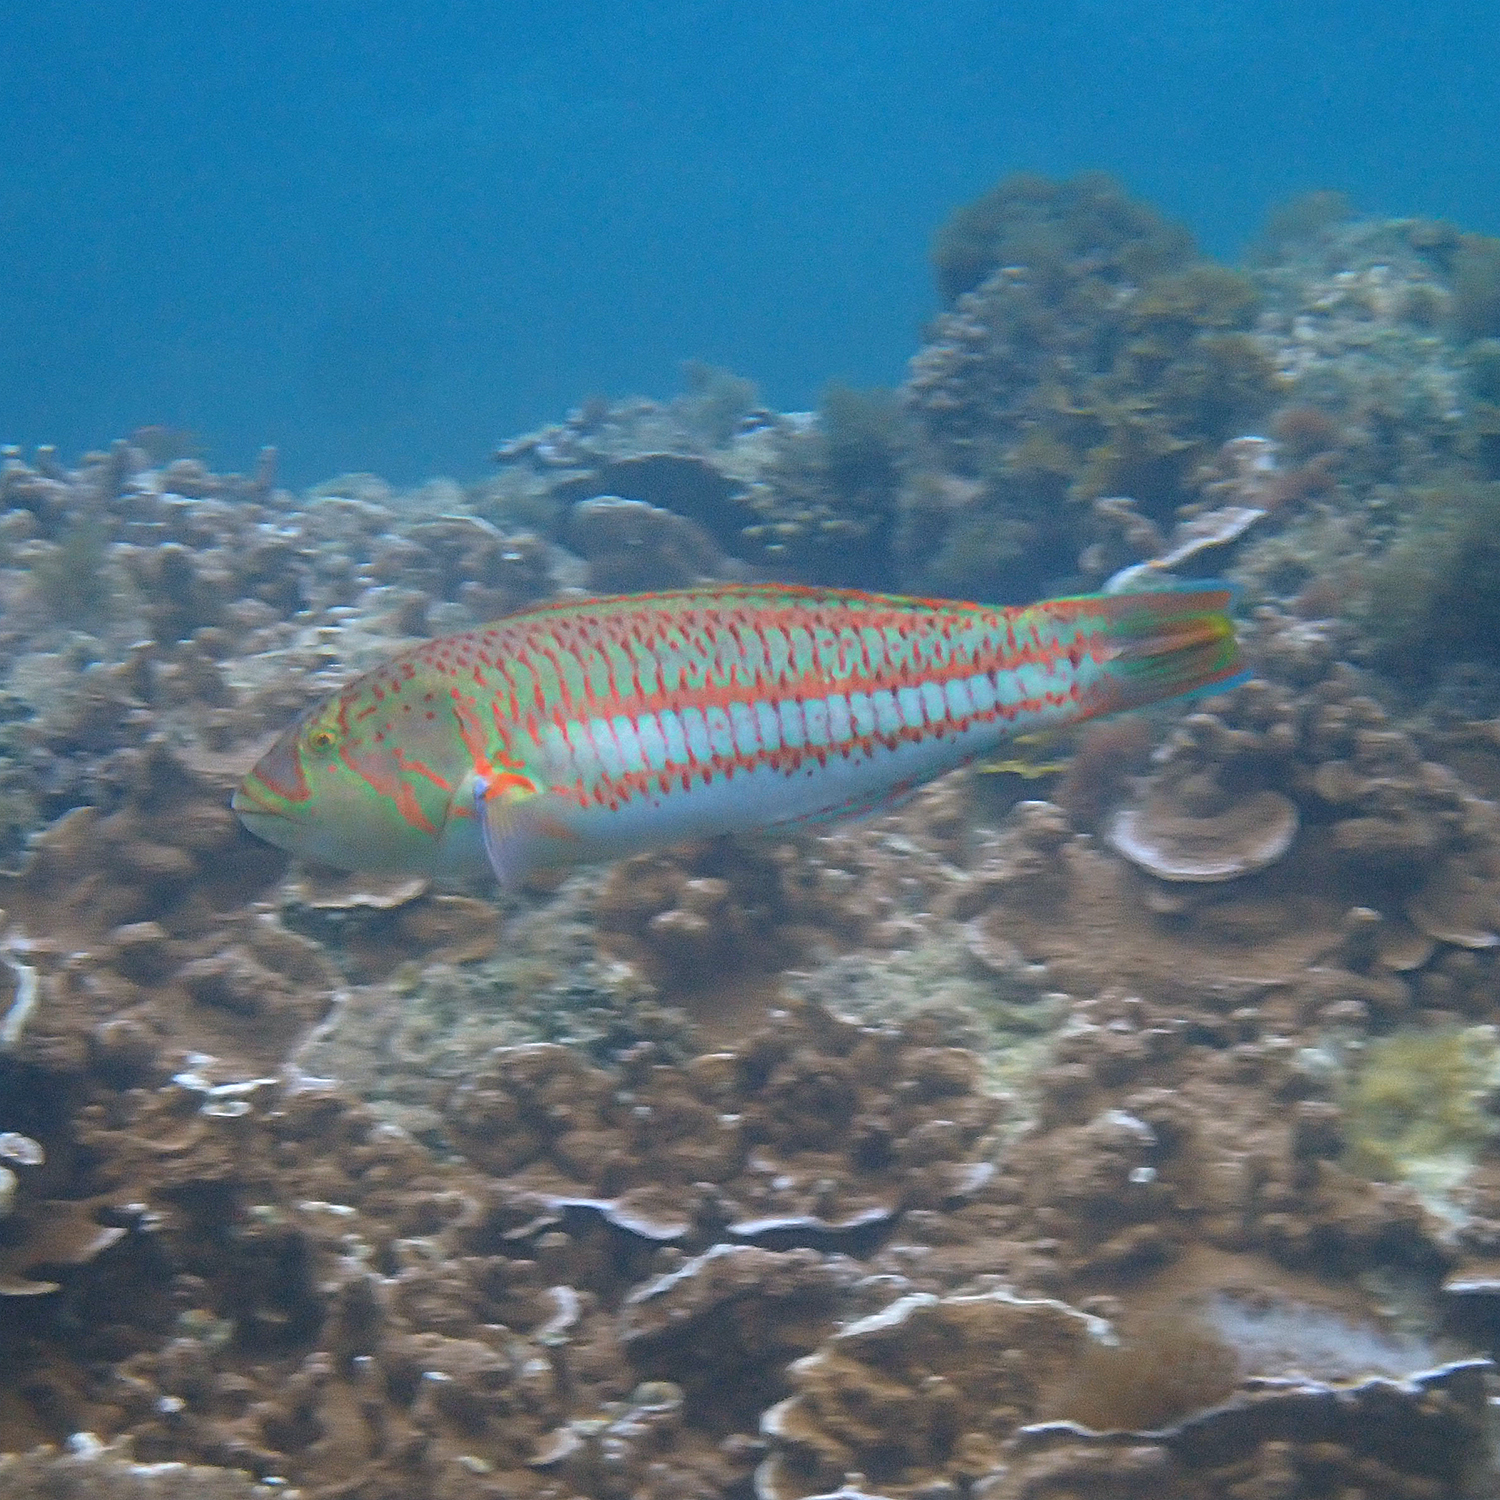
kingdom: Animalia
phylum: Chordata
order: Perciformes
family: Labridae
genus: Thalassoma
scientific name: Thalassoma purpureum
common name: Parrotfish
